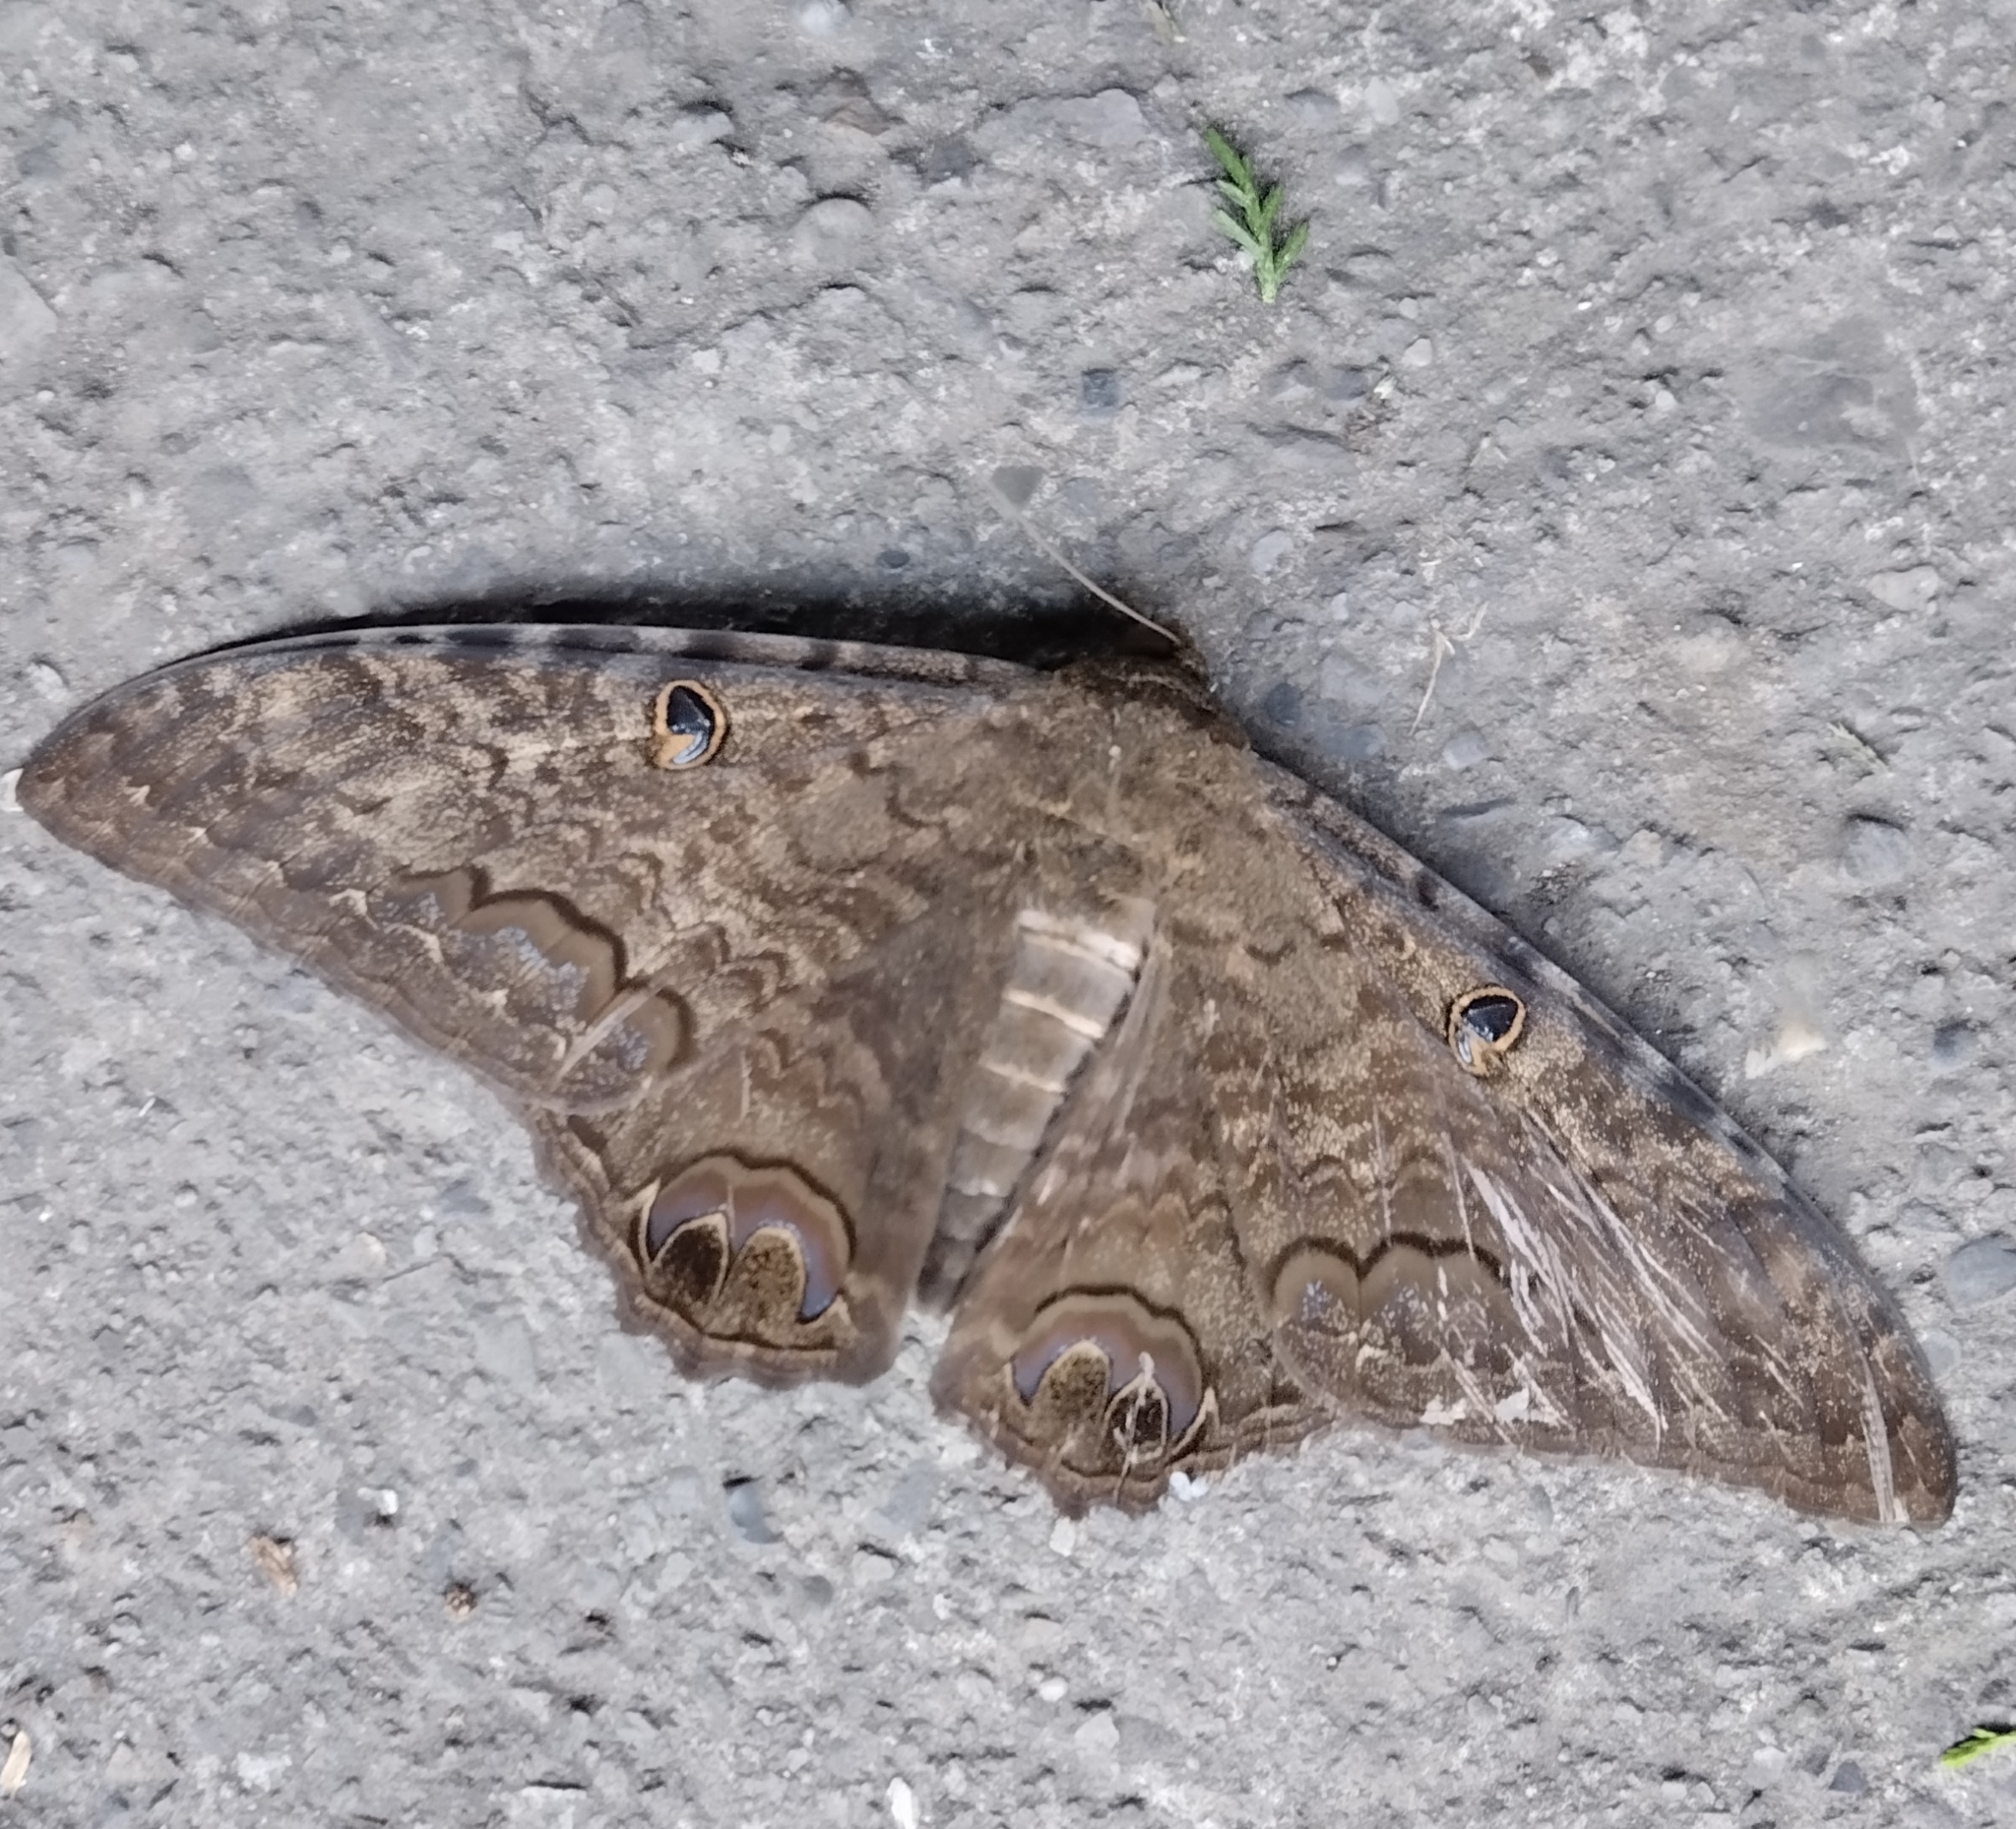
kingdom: Animalia
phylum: Arthropoda
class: Insecta
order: Lepidoptera
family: Erebidae
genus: Ascalapha
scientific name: Ascalapha odorata
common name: Black witch
